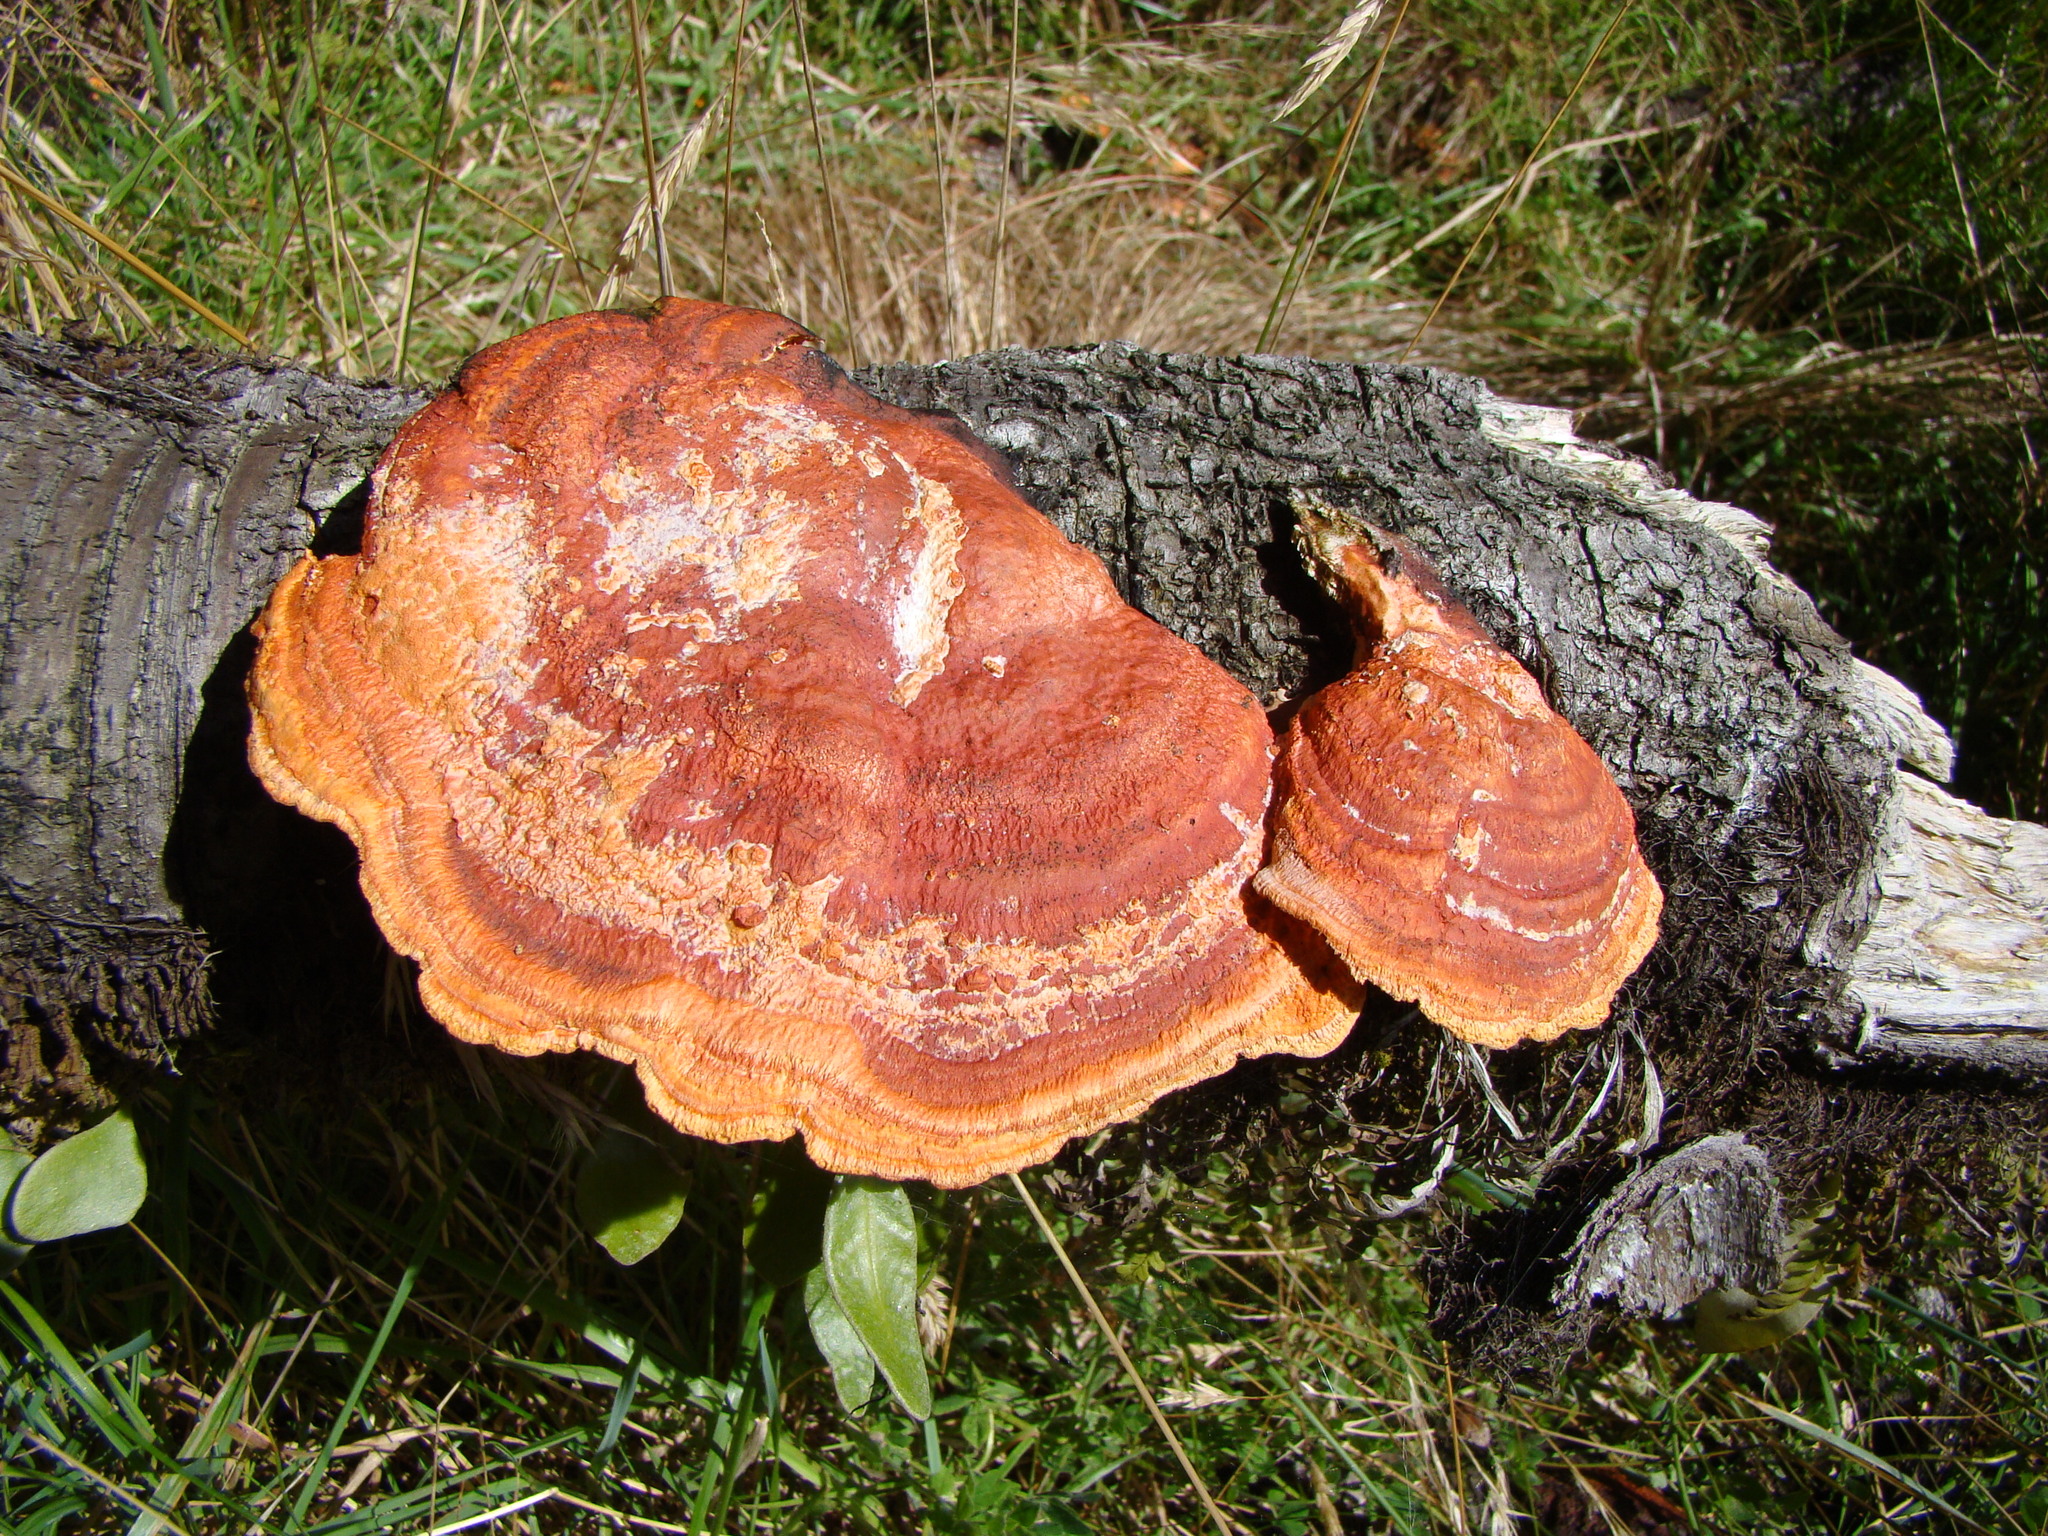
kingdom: Fungi
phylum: Basidiomycota
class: Agaricomycetes
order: Polyporales
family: Polyporaceae
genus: Trametes
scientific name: Trametes coccinea
